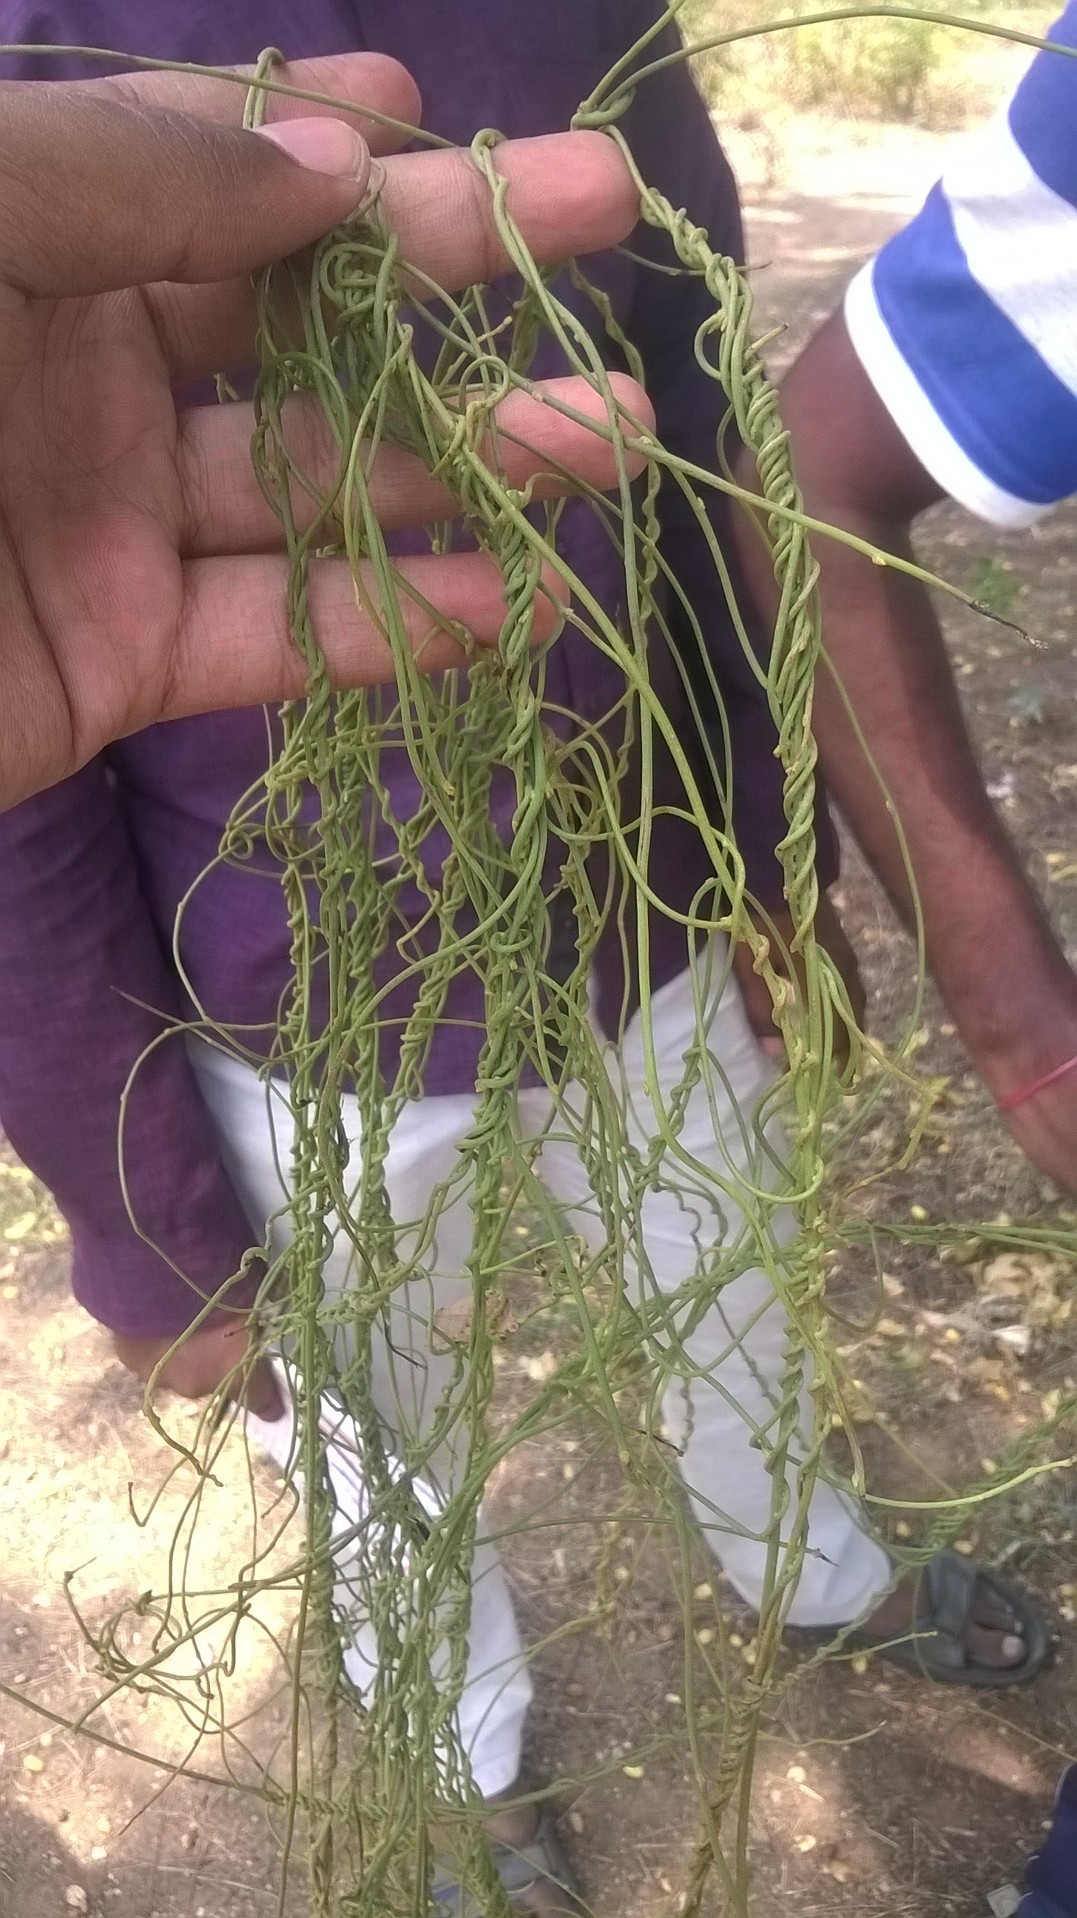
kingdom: Plantae
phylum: Tracheophyta
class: Magnoliopsida
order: Laurales
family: Lauraceae
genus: Cassytha
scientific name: Cassytha filiformis
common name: Dodder-laurel
